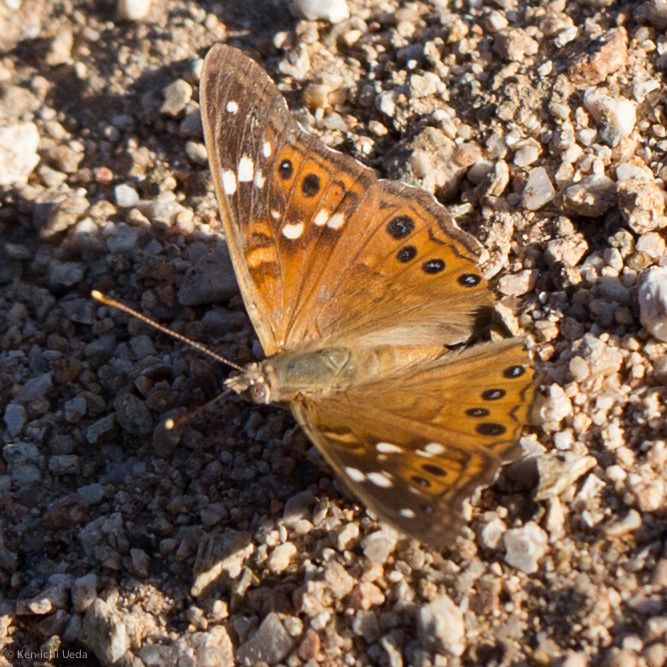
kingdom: Animalia
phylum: Arthropoda
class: Insecta
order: Lepidoptera
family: Nymphalidae
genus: Asterocampa
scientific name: Asterocampa leilia
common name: Empress leilia
